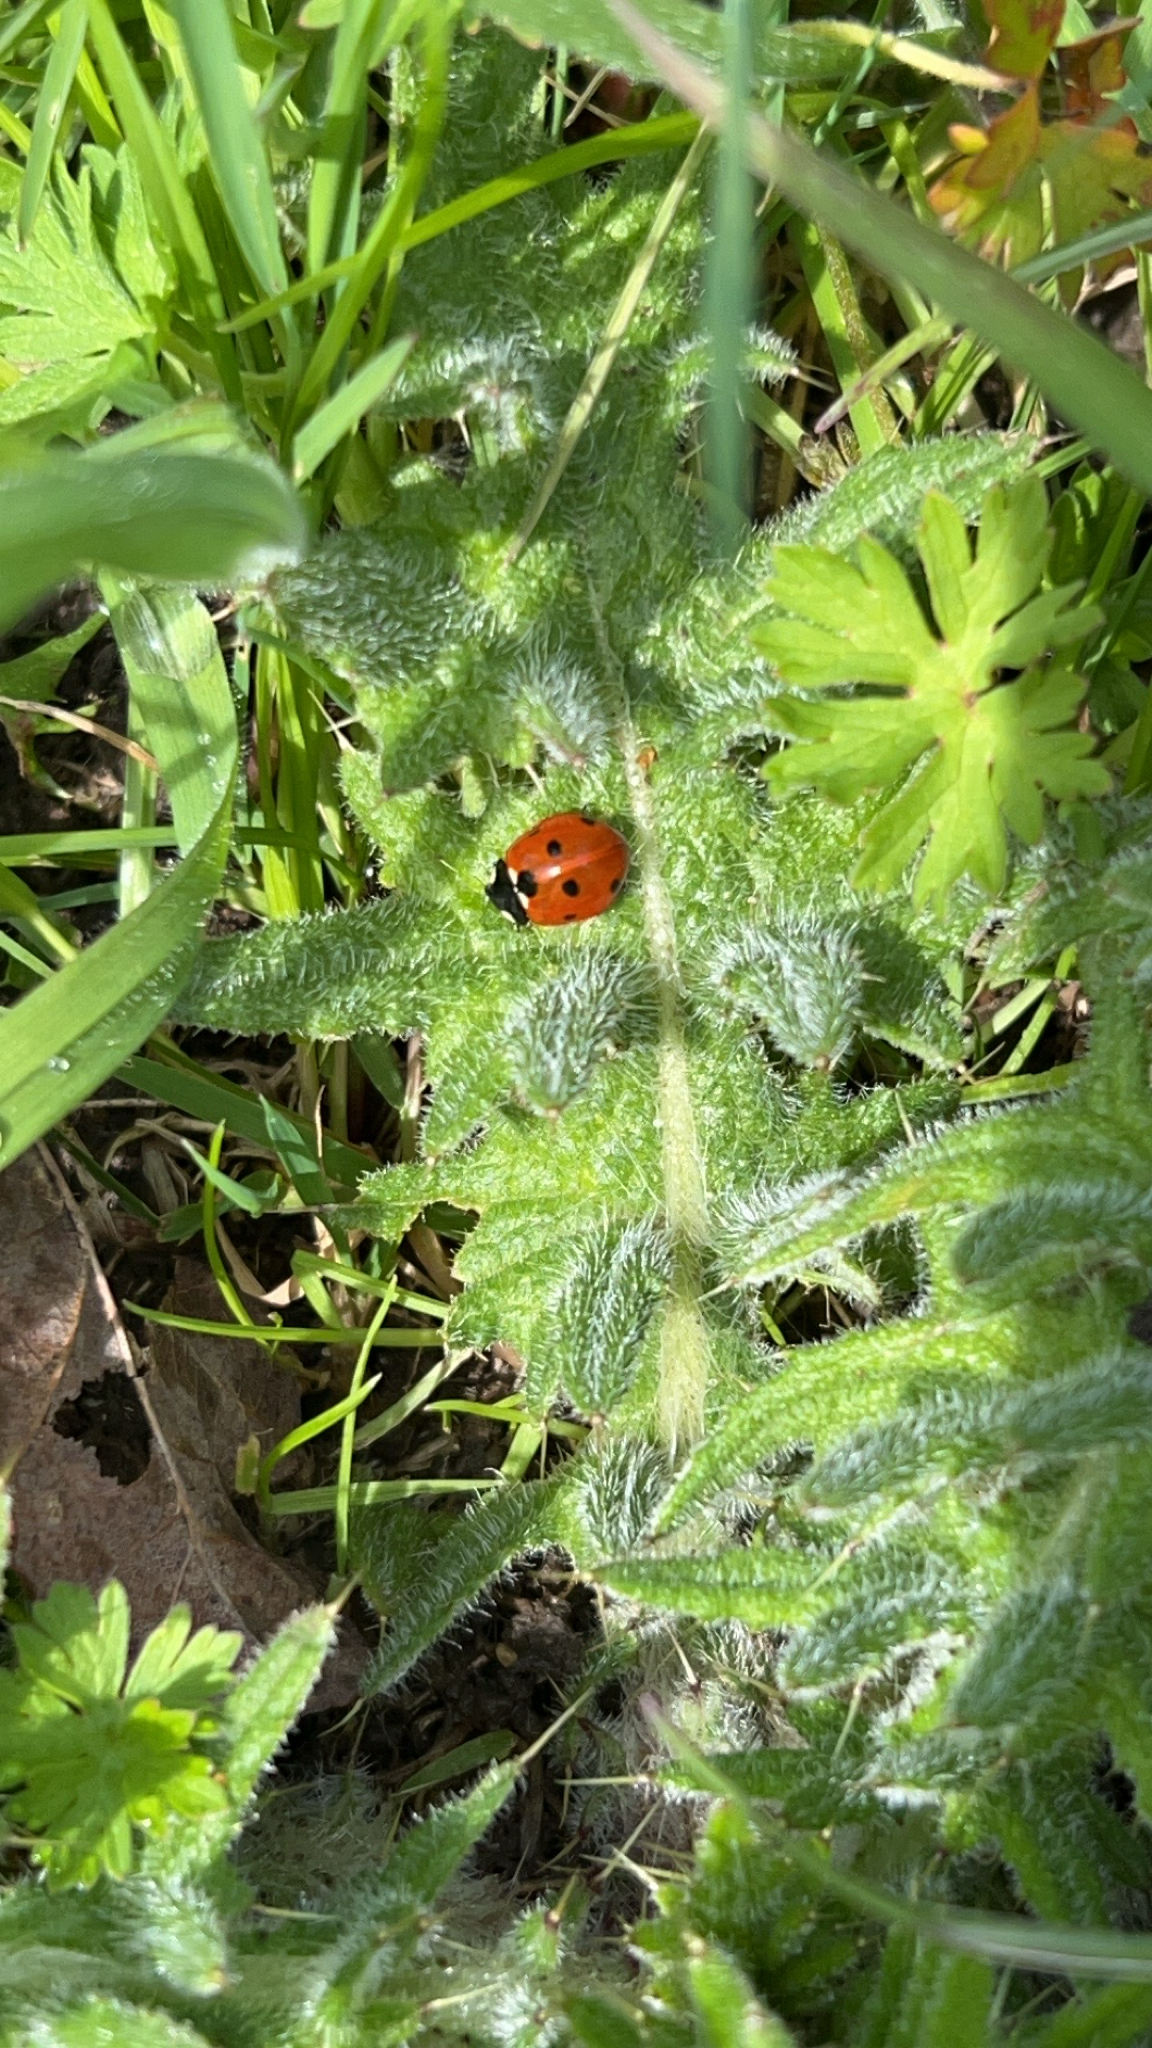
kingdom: Animalia
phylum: Arthropoda
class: Insecta
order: Coleoptera
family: Coccinellidae
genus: Coccinella
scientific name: Coccinella septempunctata
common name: Sevenspotted lady beetle
